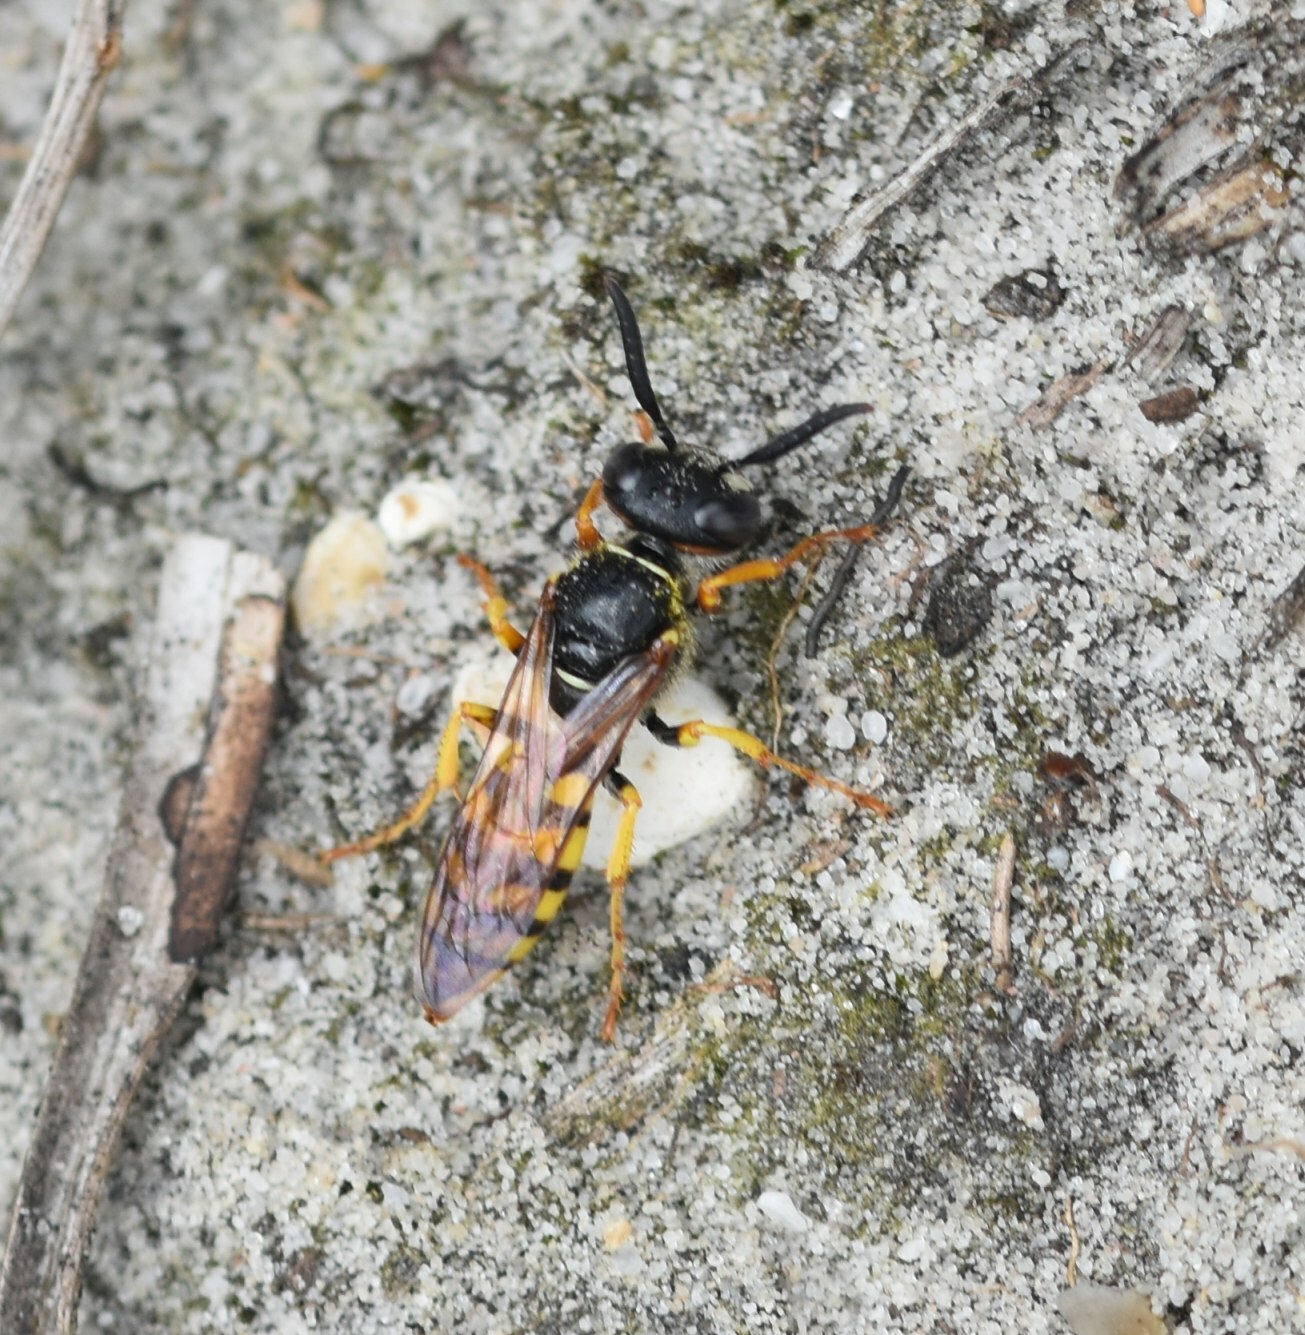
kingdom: Animalia
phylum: Arthropoda
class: Insecta
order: Hymenoptera
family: Crabronidae
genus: Philanthus
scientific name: Philanthus triangulum
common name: Bee wolf
